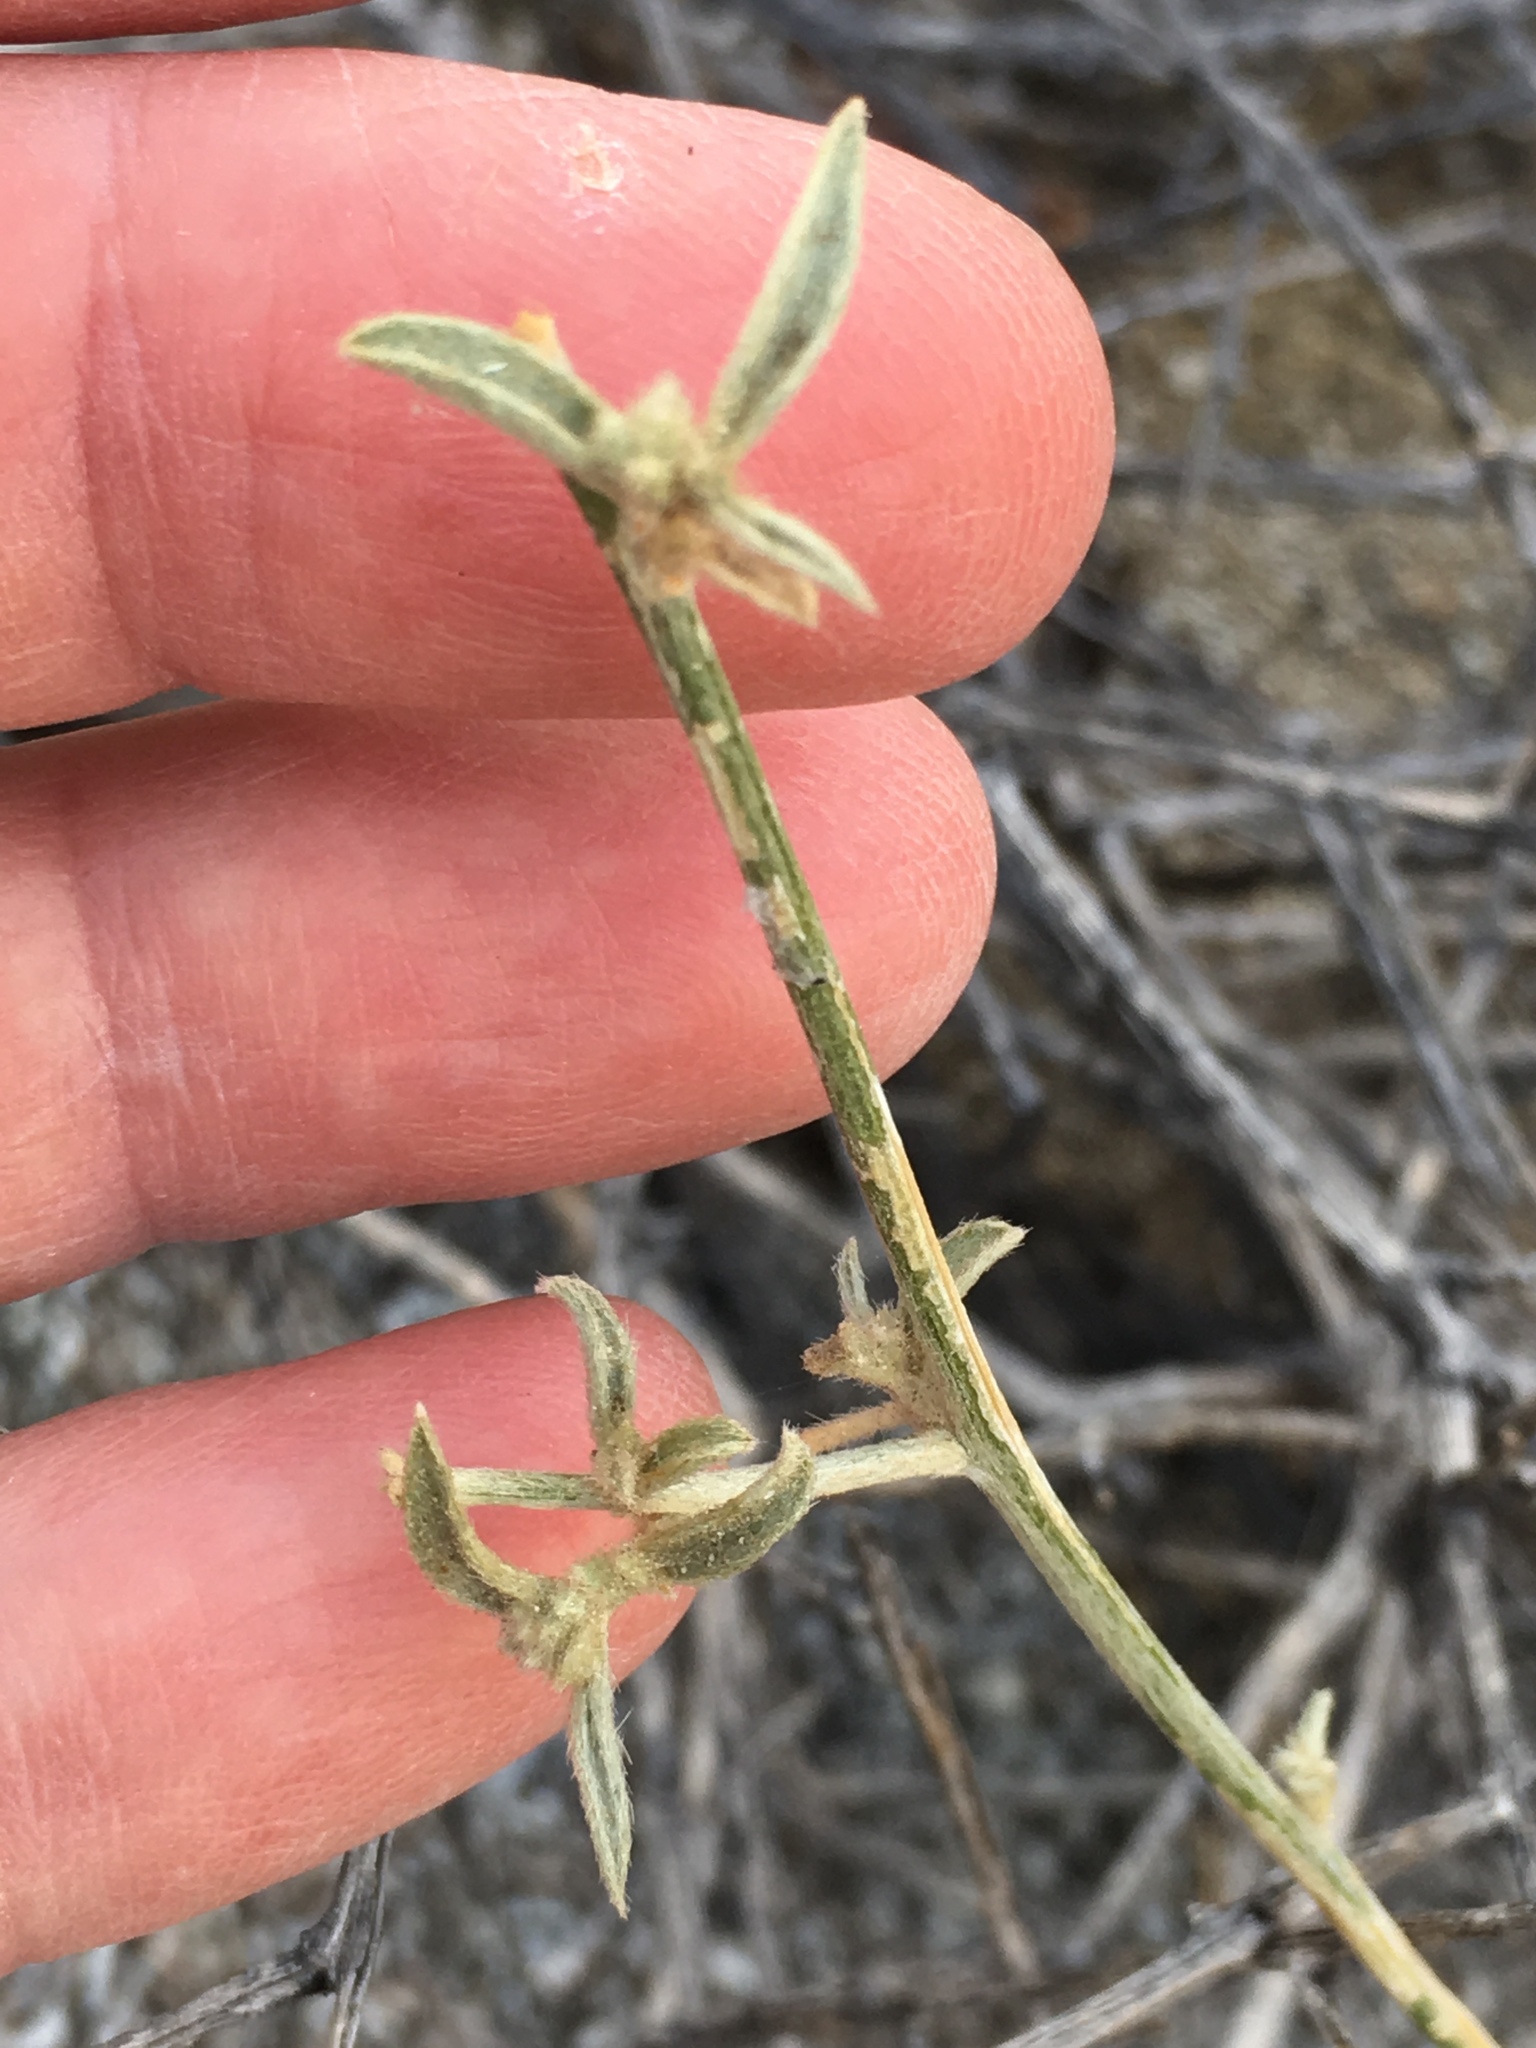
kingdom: Plantae
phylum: Tracheophyta
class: Magnoliopsida
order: Malpighiales
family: Euphorbiaceae
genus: Ditaxis
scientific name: Ditaxis lanceolata
